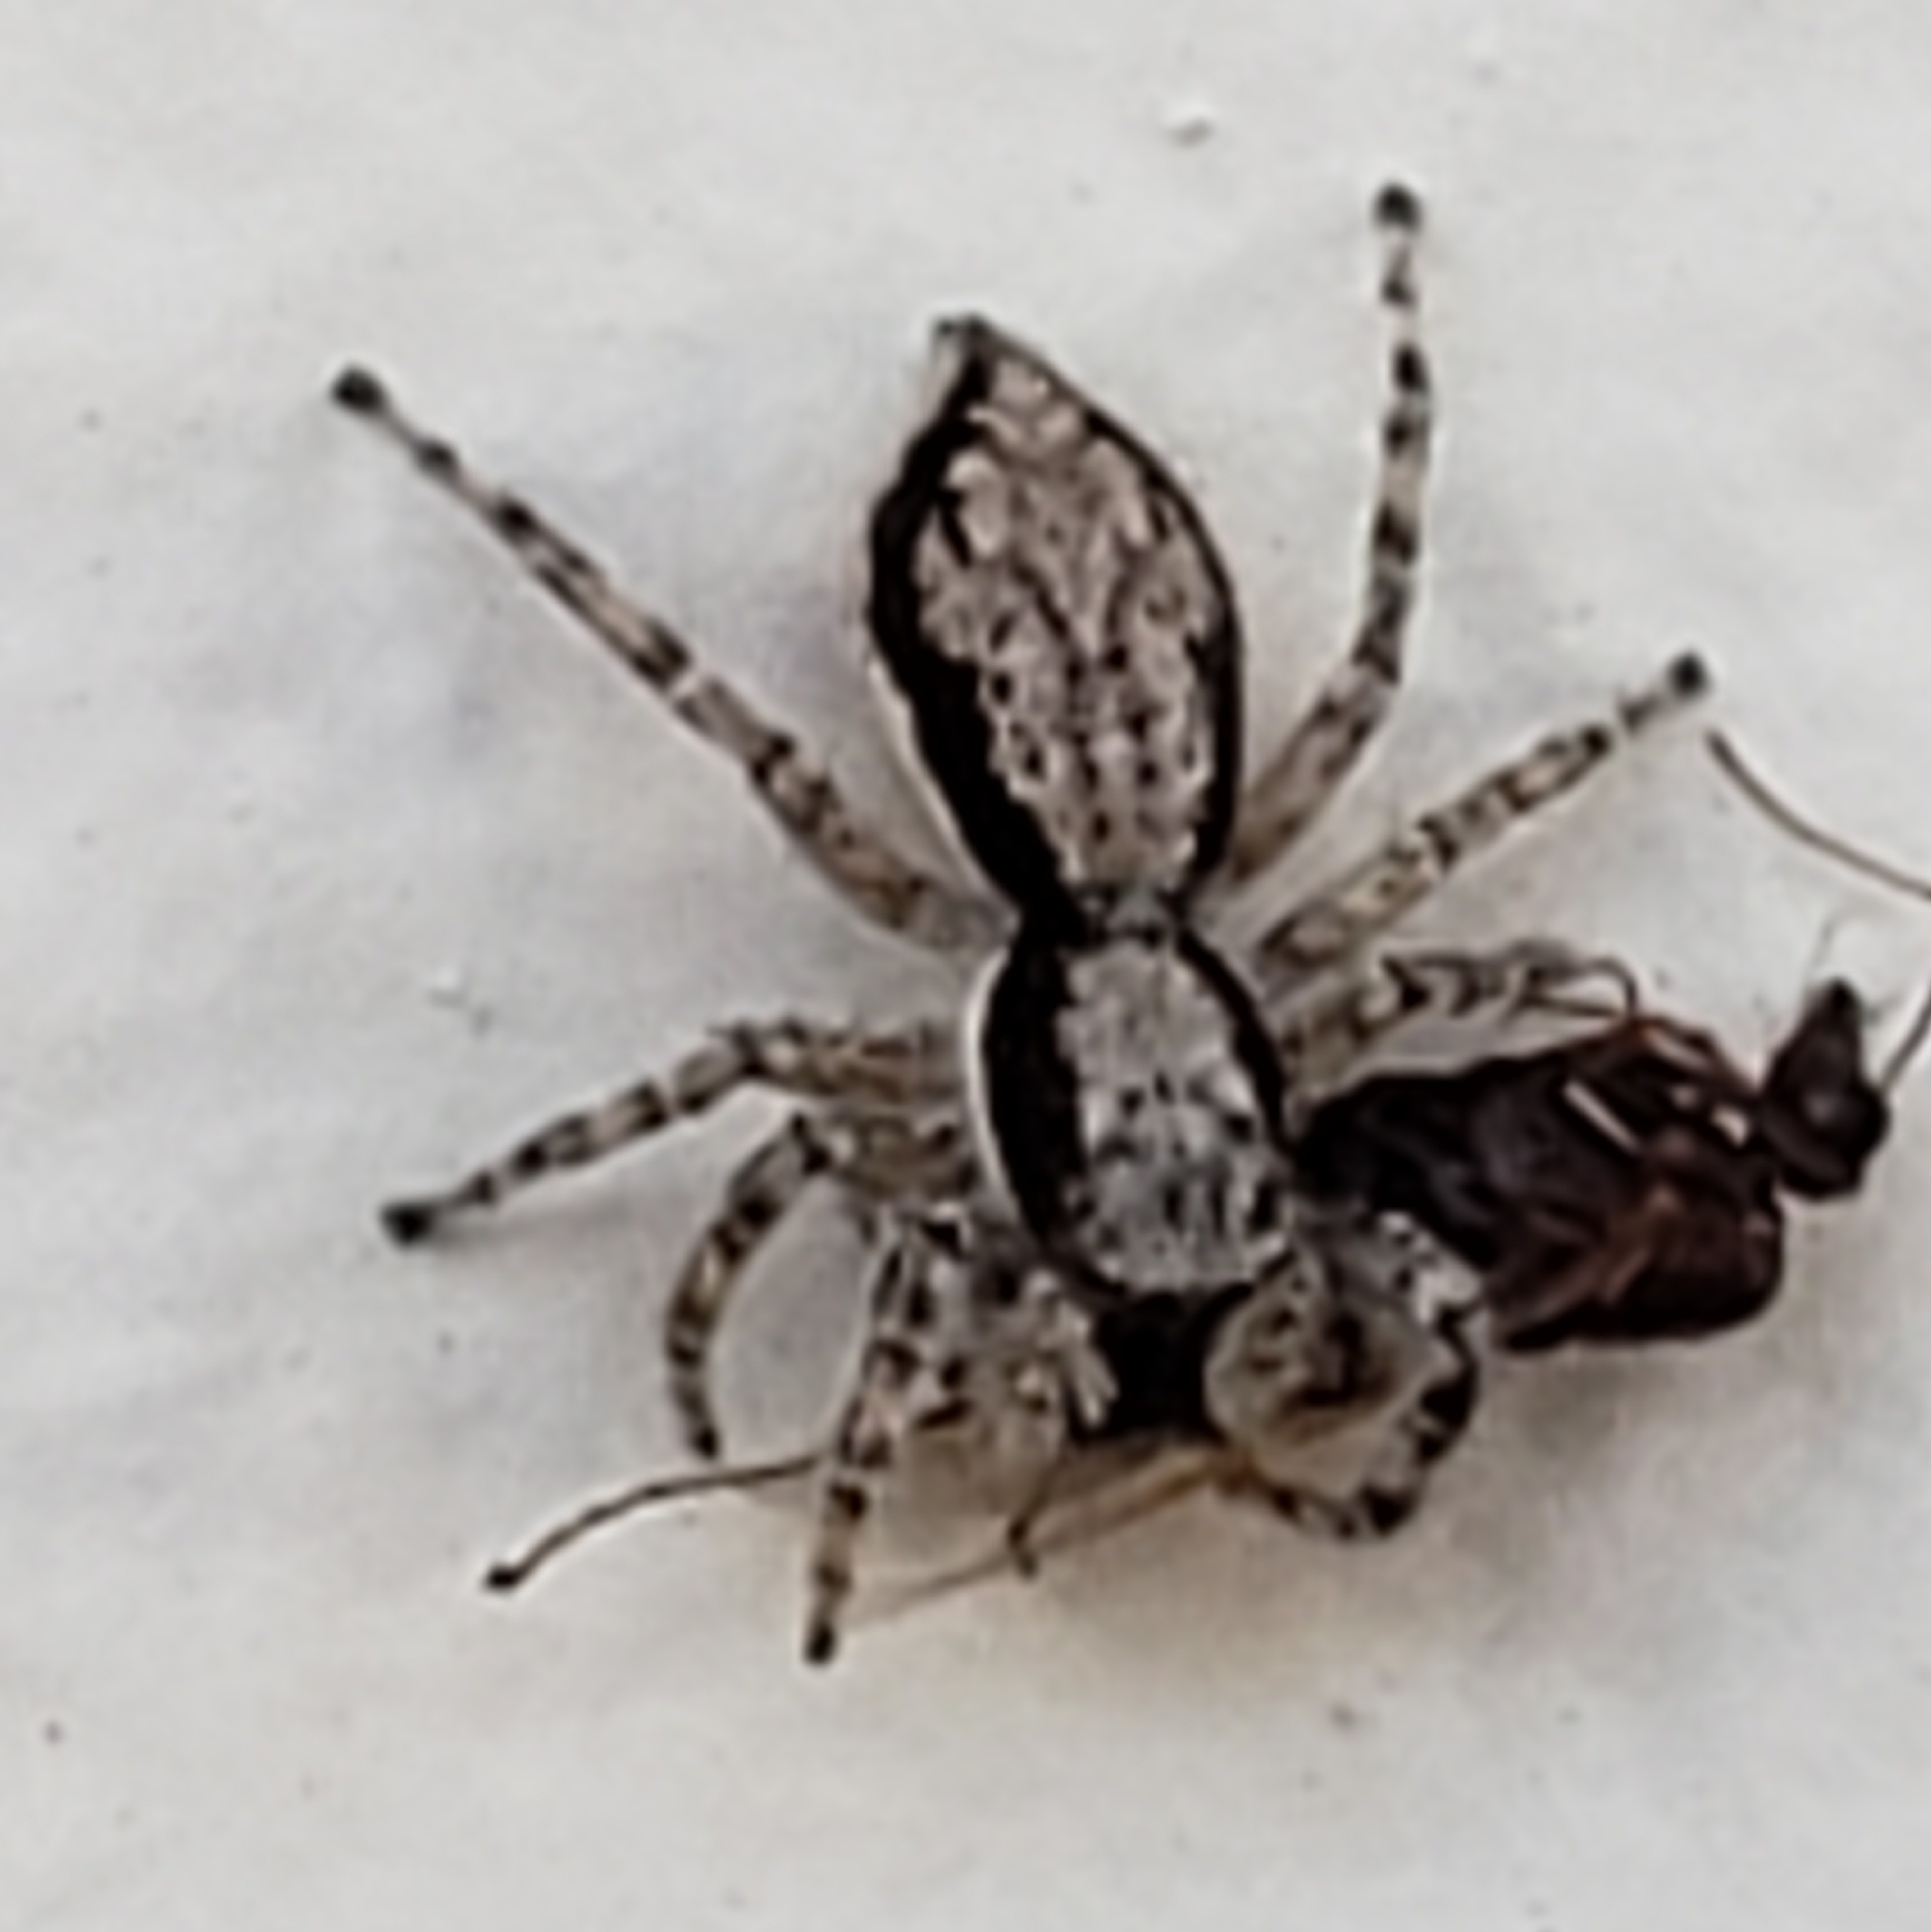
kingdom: Animalia
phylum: Arthropoda
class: Arachnida
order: Araneae
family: Salticidae
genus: Menemerus
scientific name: Menemerus bivittatus
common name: Gray wall jumper
